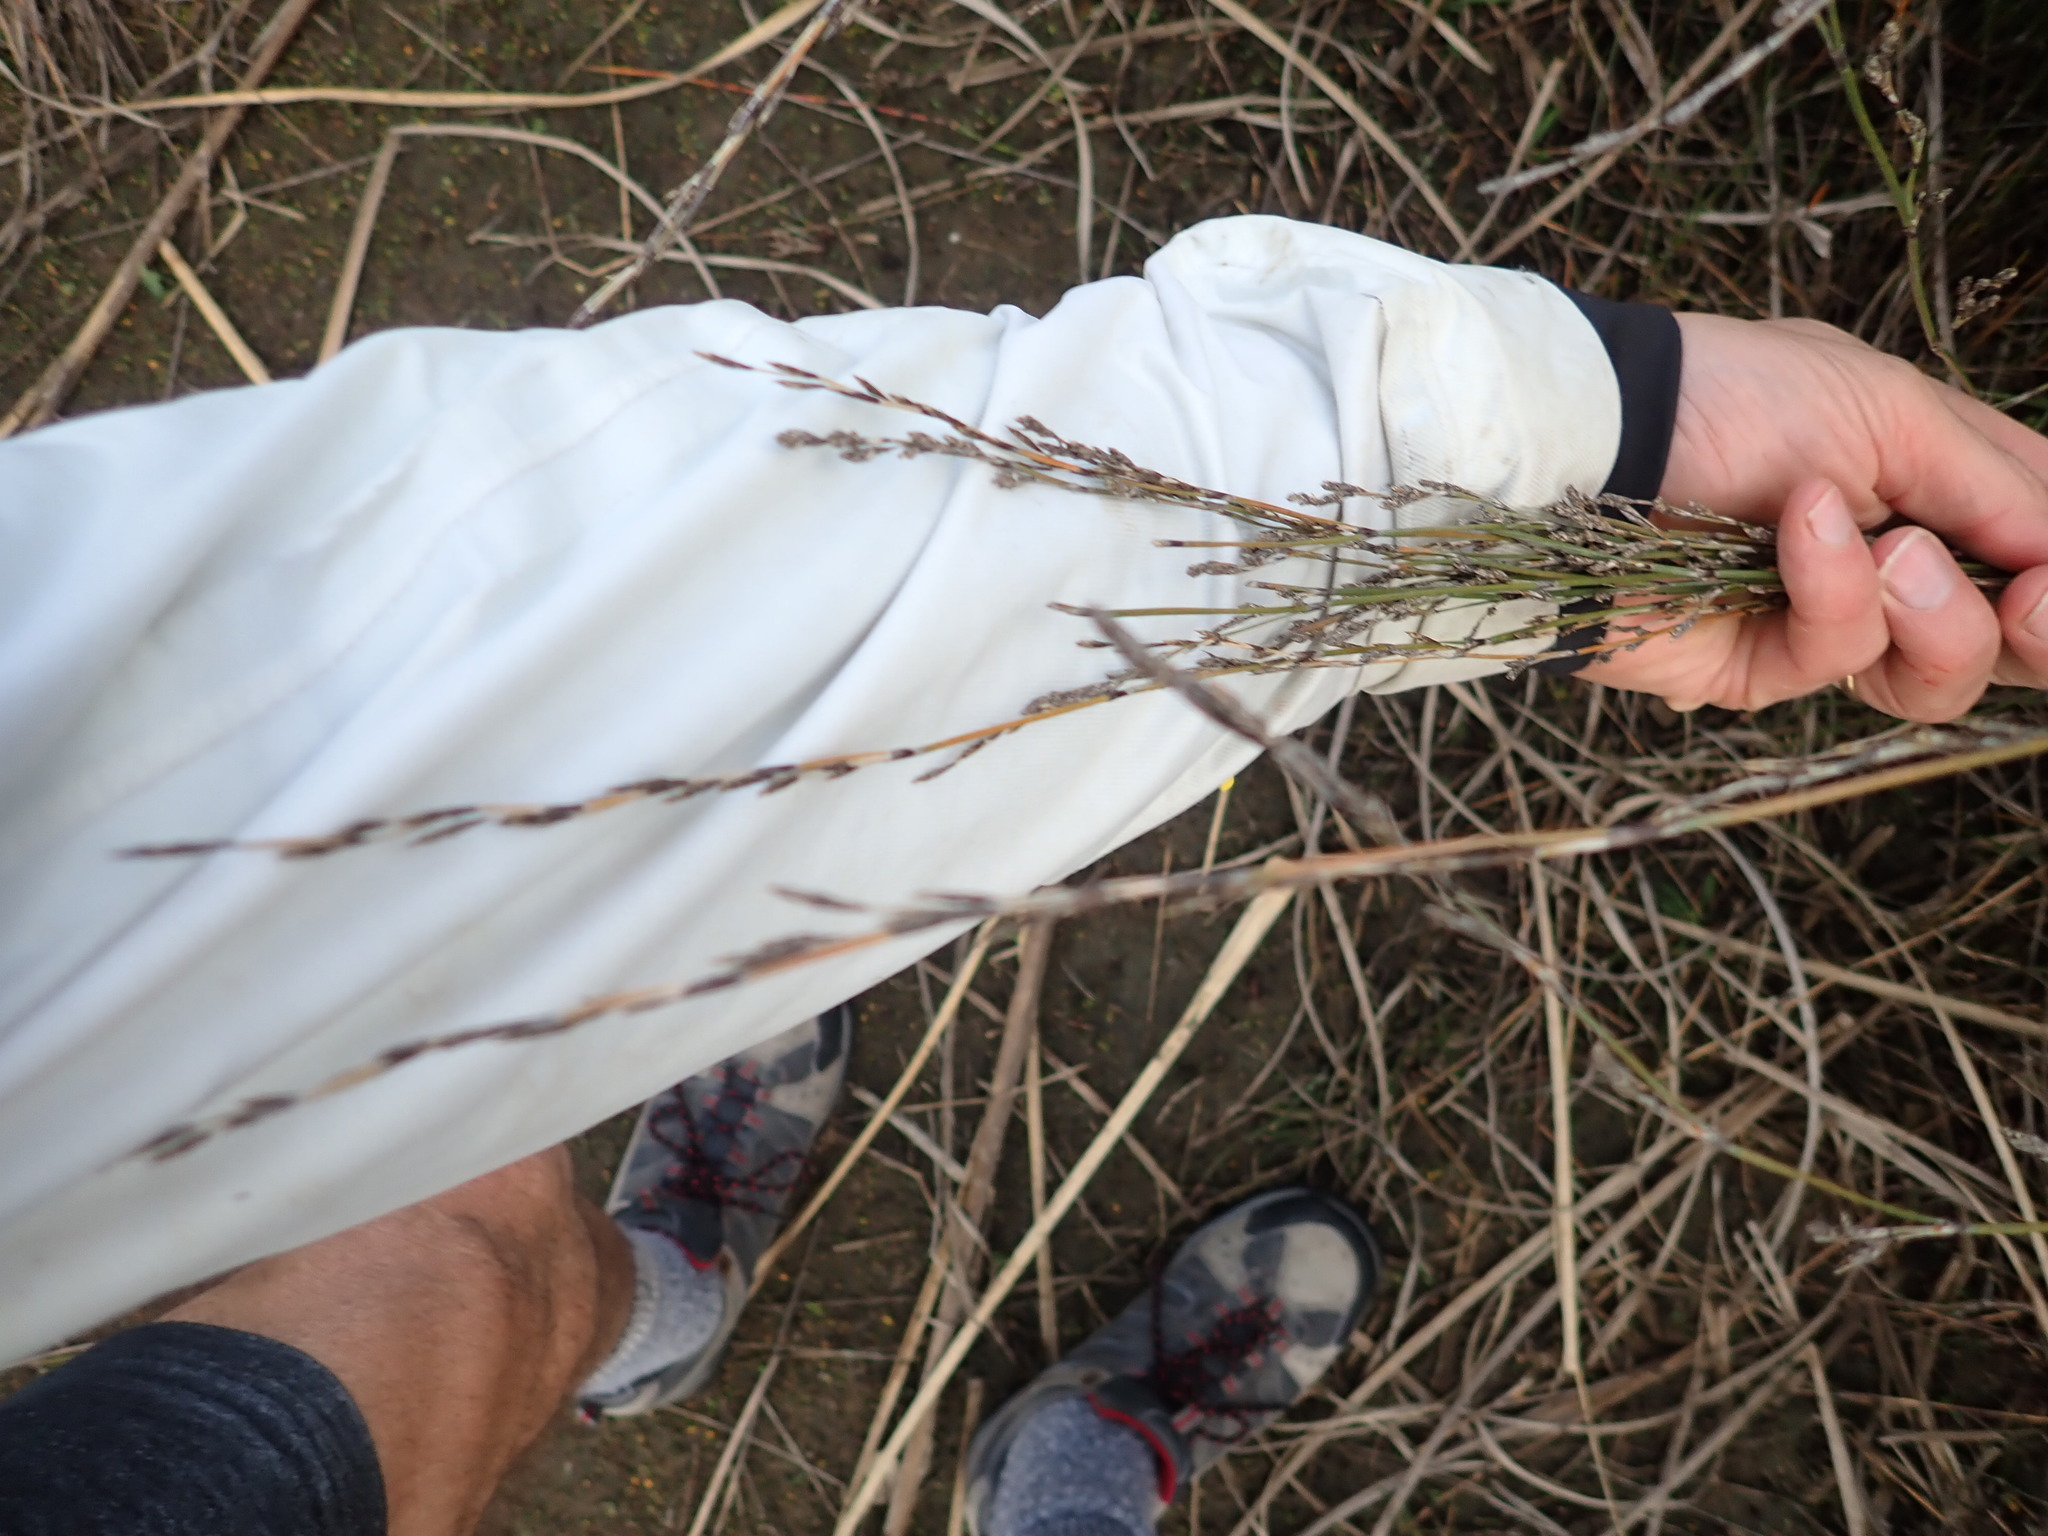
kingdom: Plantae
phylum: Tracheophyta
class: Liliopsida
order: Poales
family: Restionaceae
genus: Apodasmia
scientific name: Apodasmia similis
